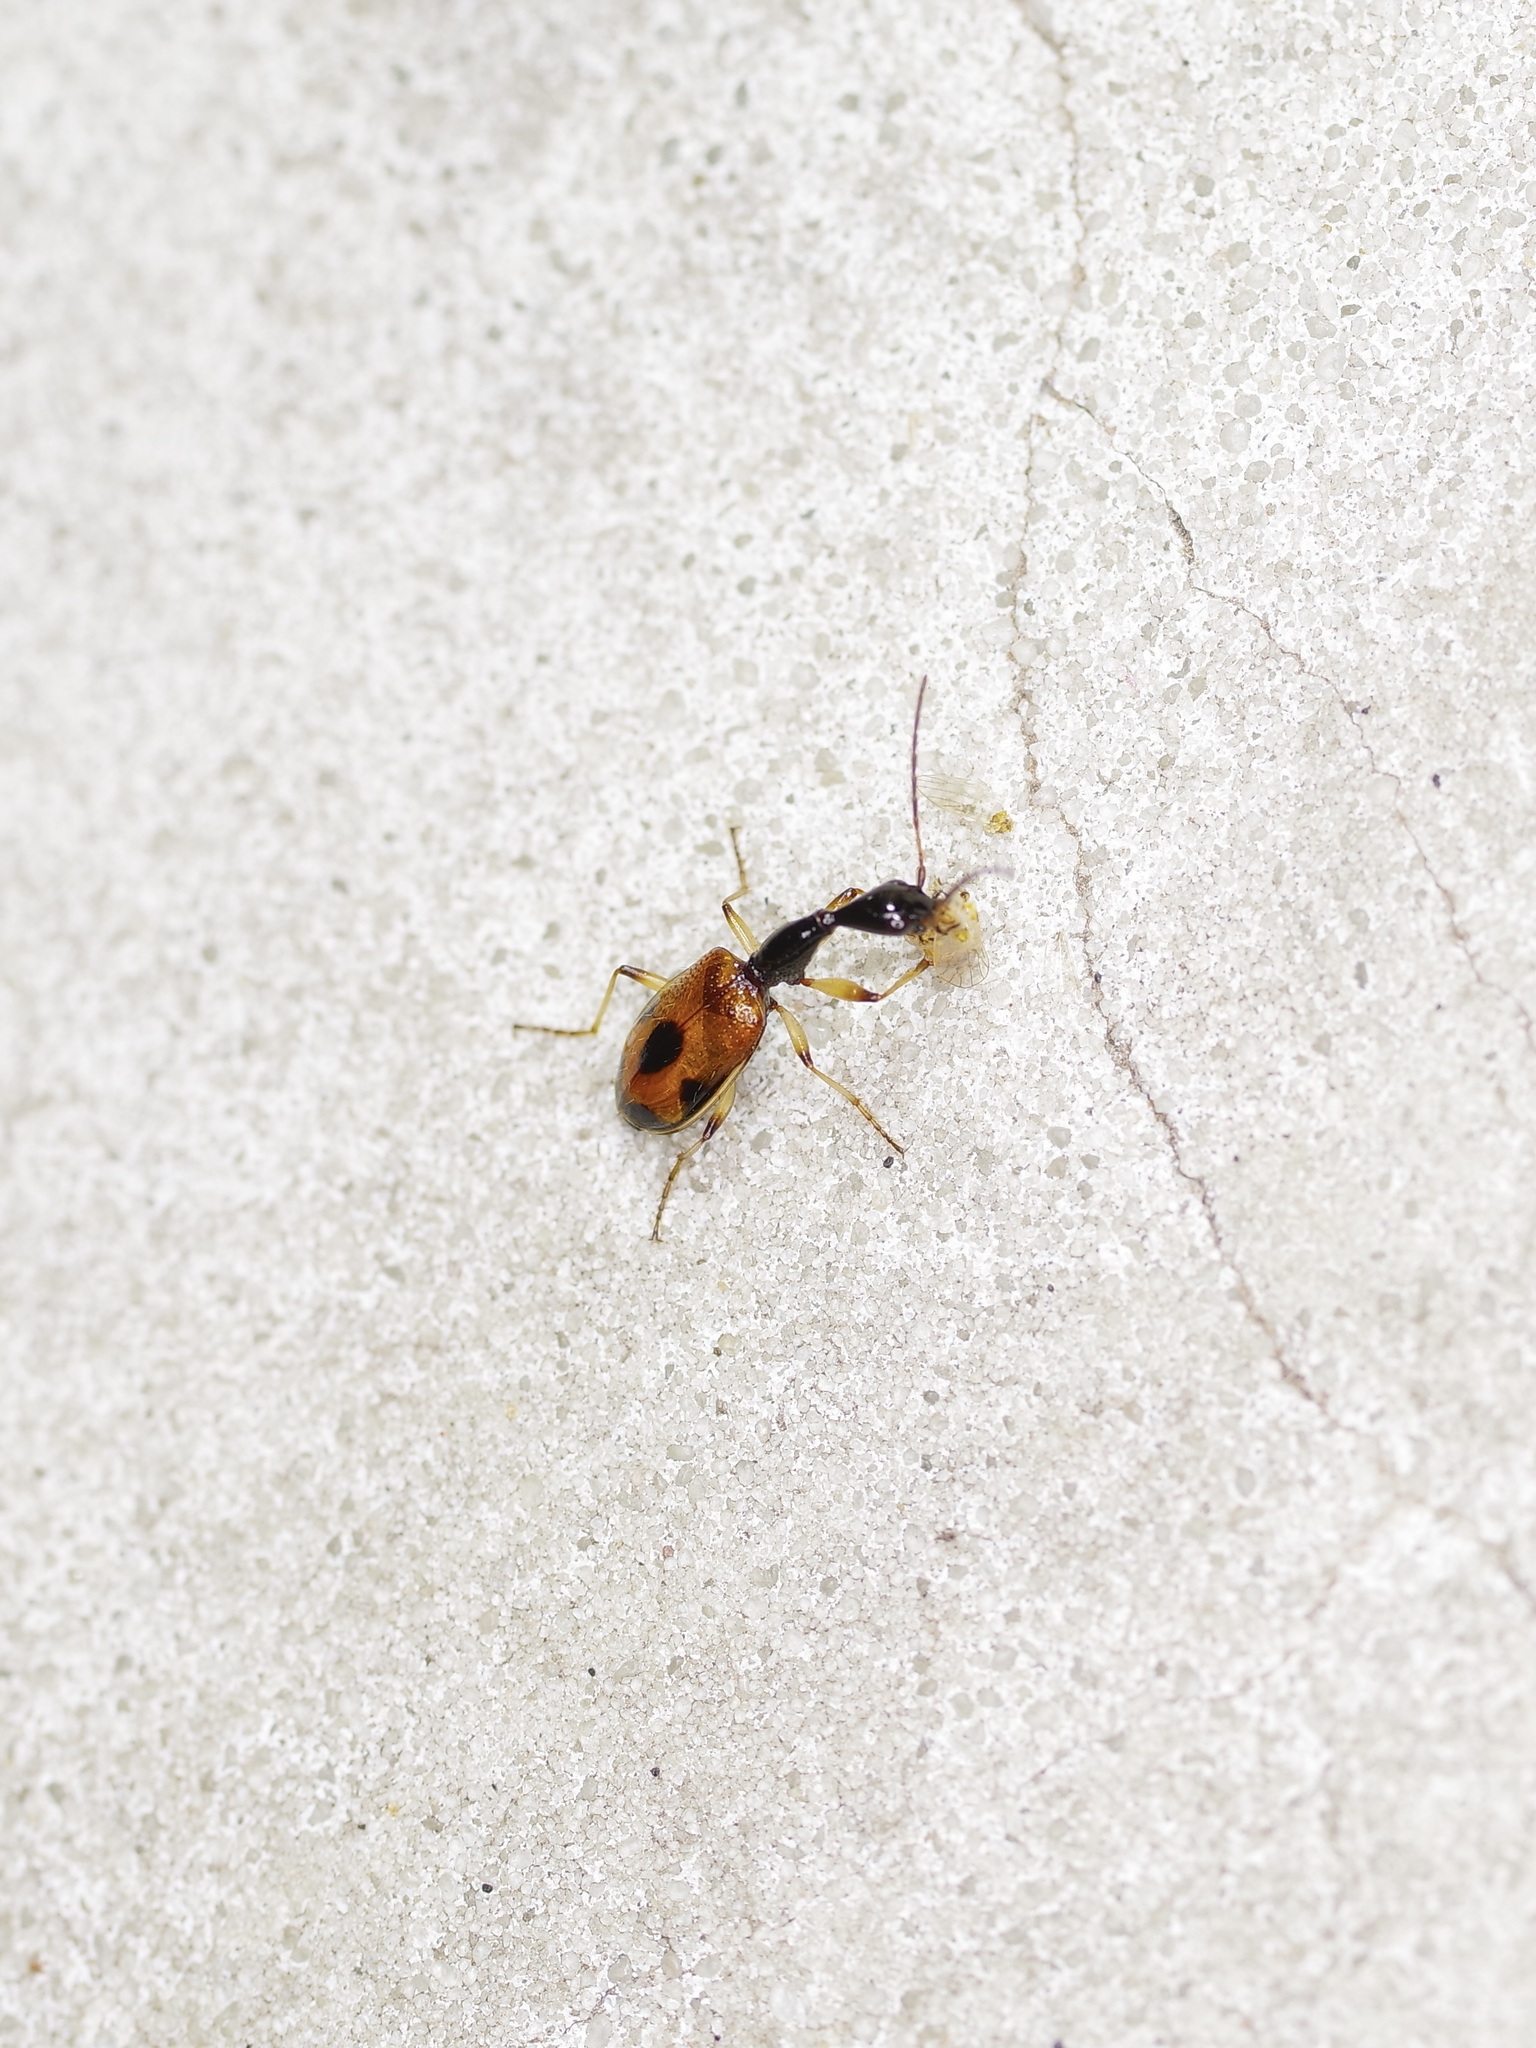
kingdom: Animalia
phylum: Arthropoda
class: Insecta
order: Coleoptera
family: Carabidae
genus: Colliuris
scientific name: Colliuris pensylvanica
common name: Long-necked ground beetle
